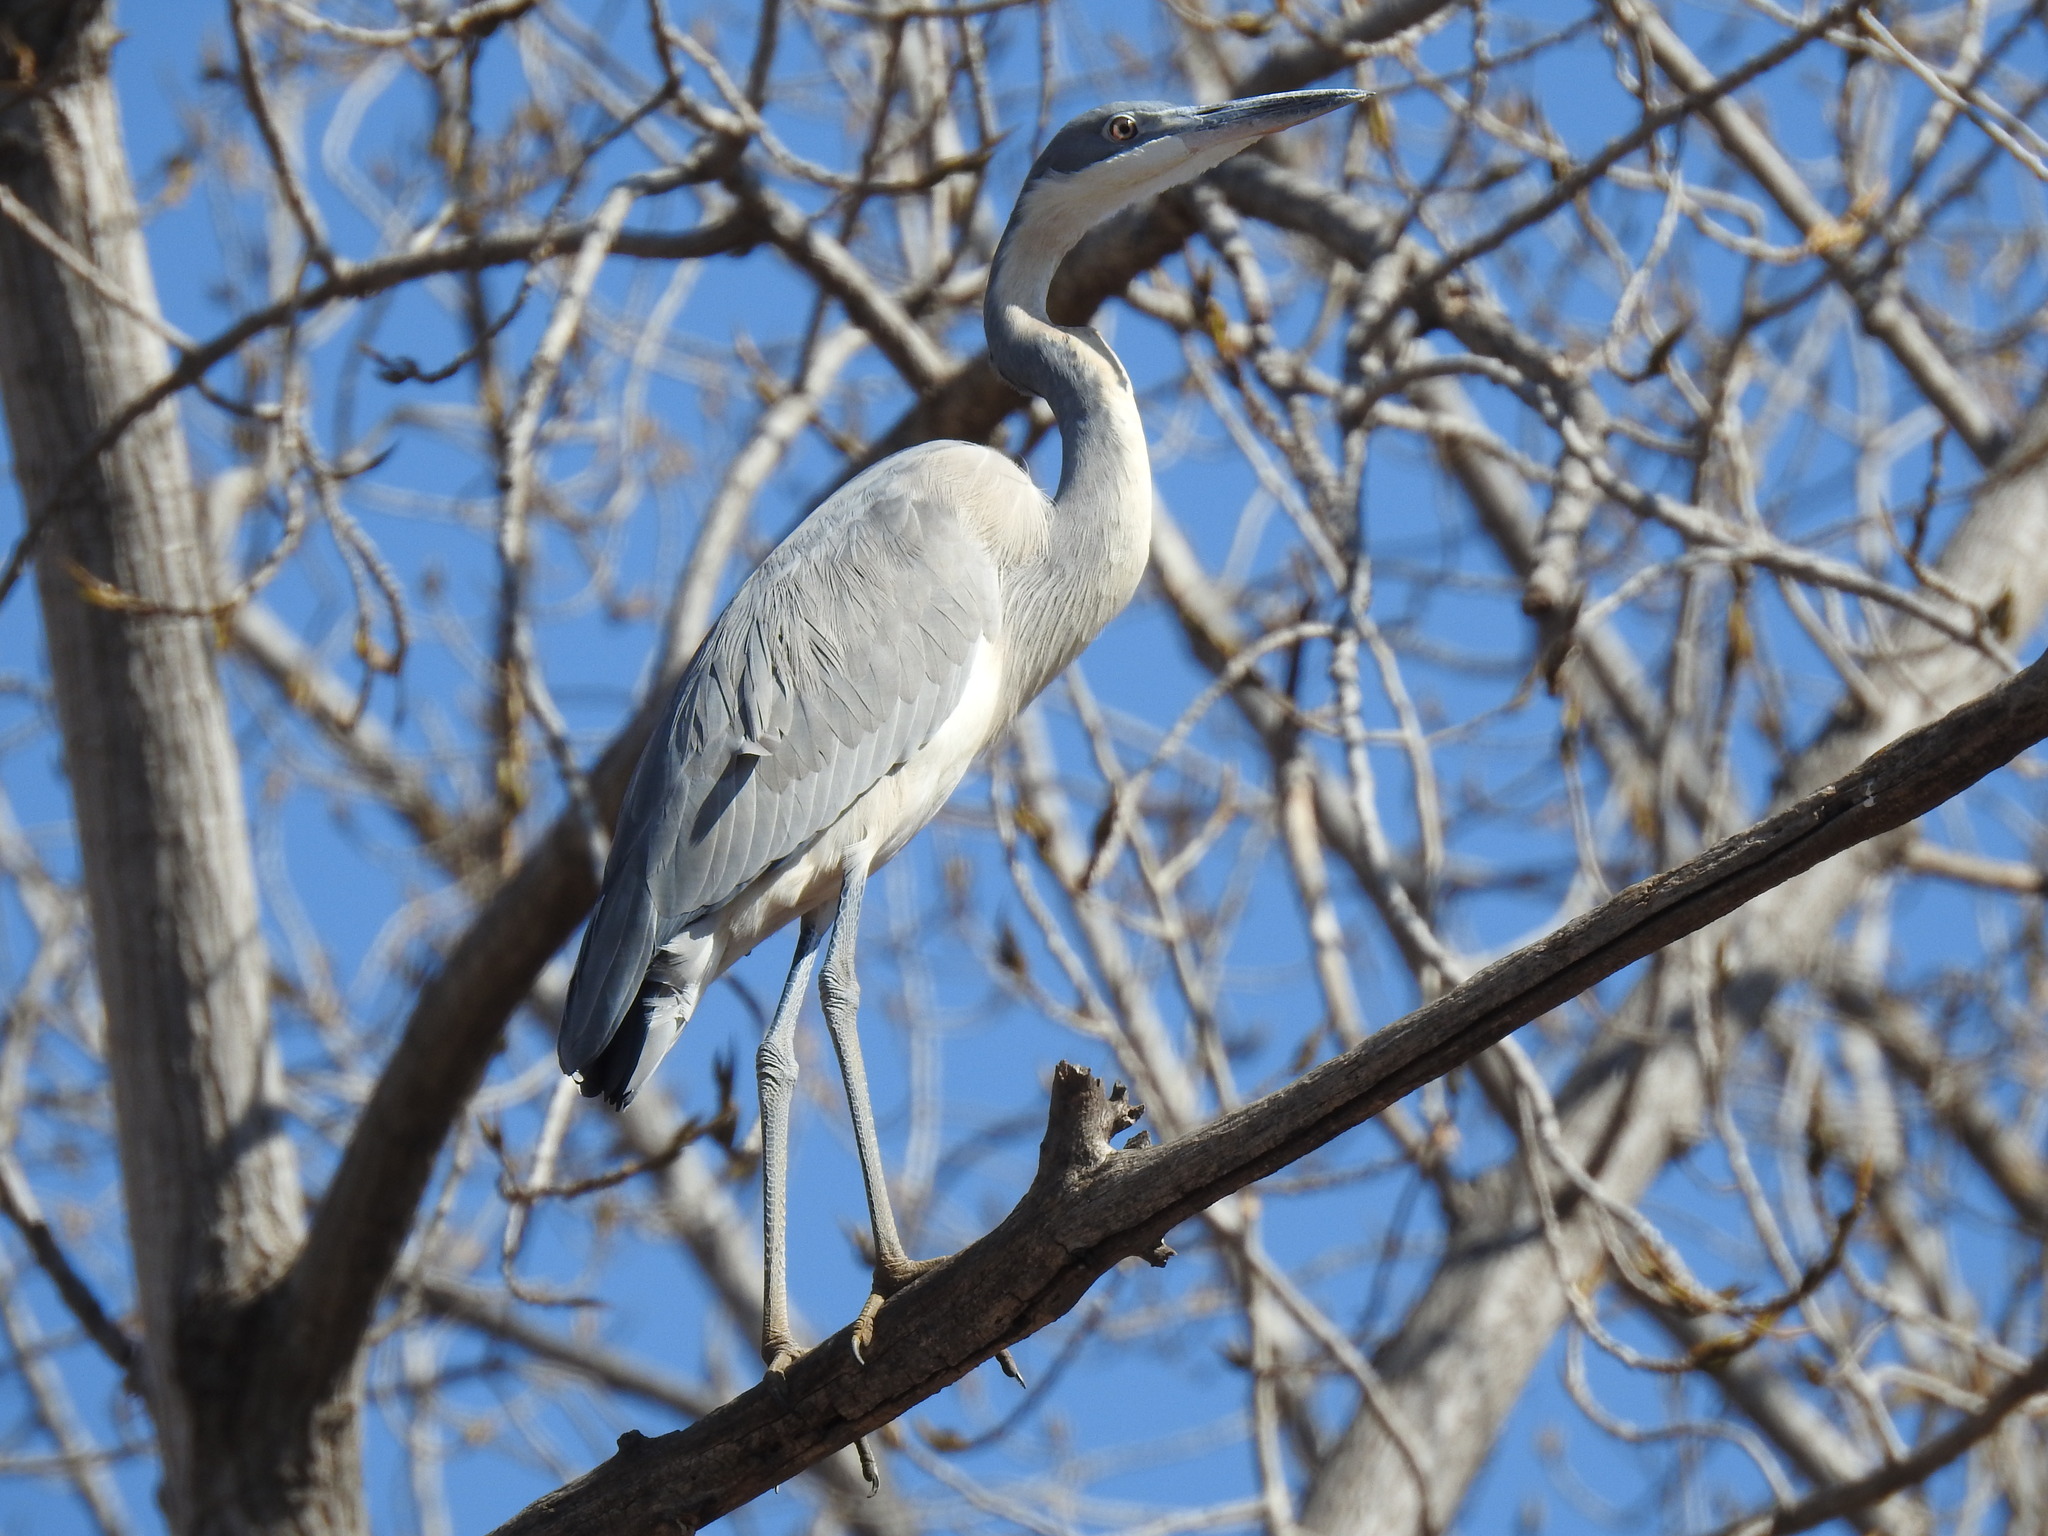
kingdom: Animalia
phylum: Chordata
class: Aves
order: Pelecaniformes
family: Ardeidae
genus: Ardea
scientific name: Ardea melanocephala
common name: Black-headed heron
